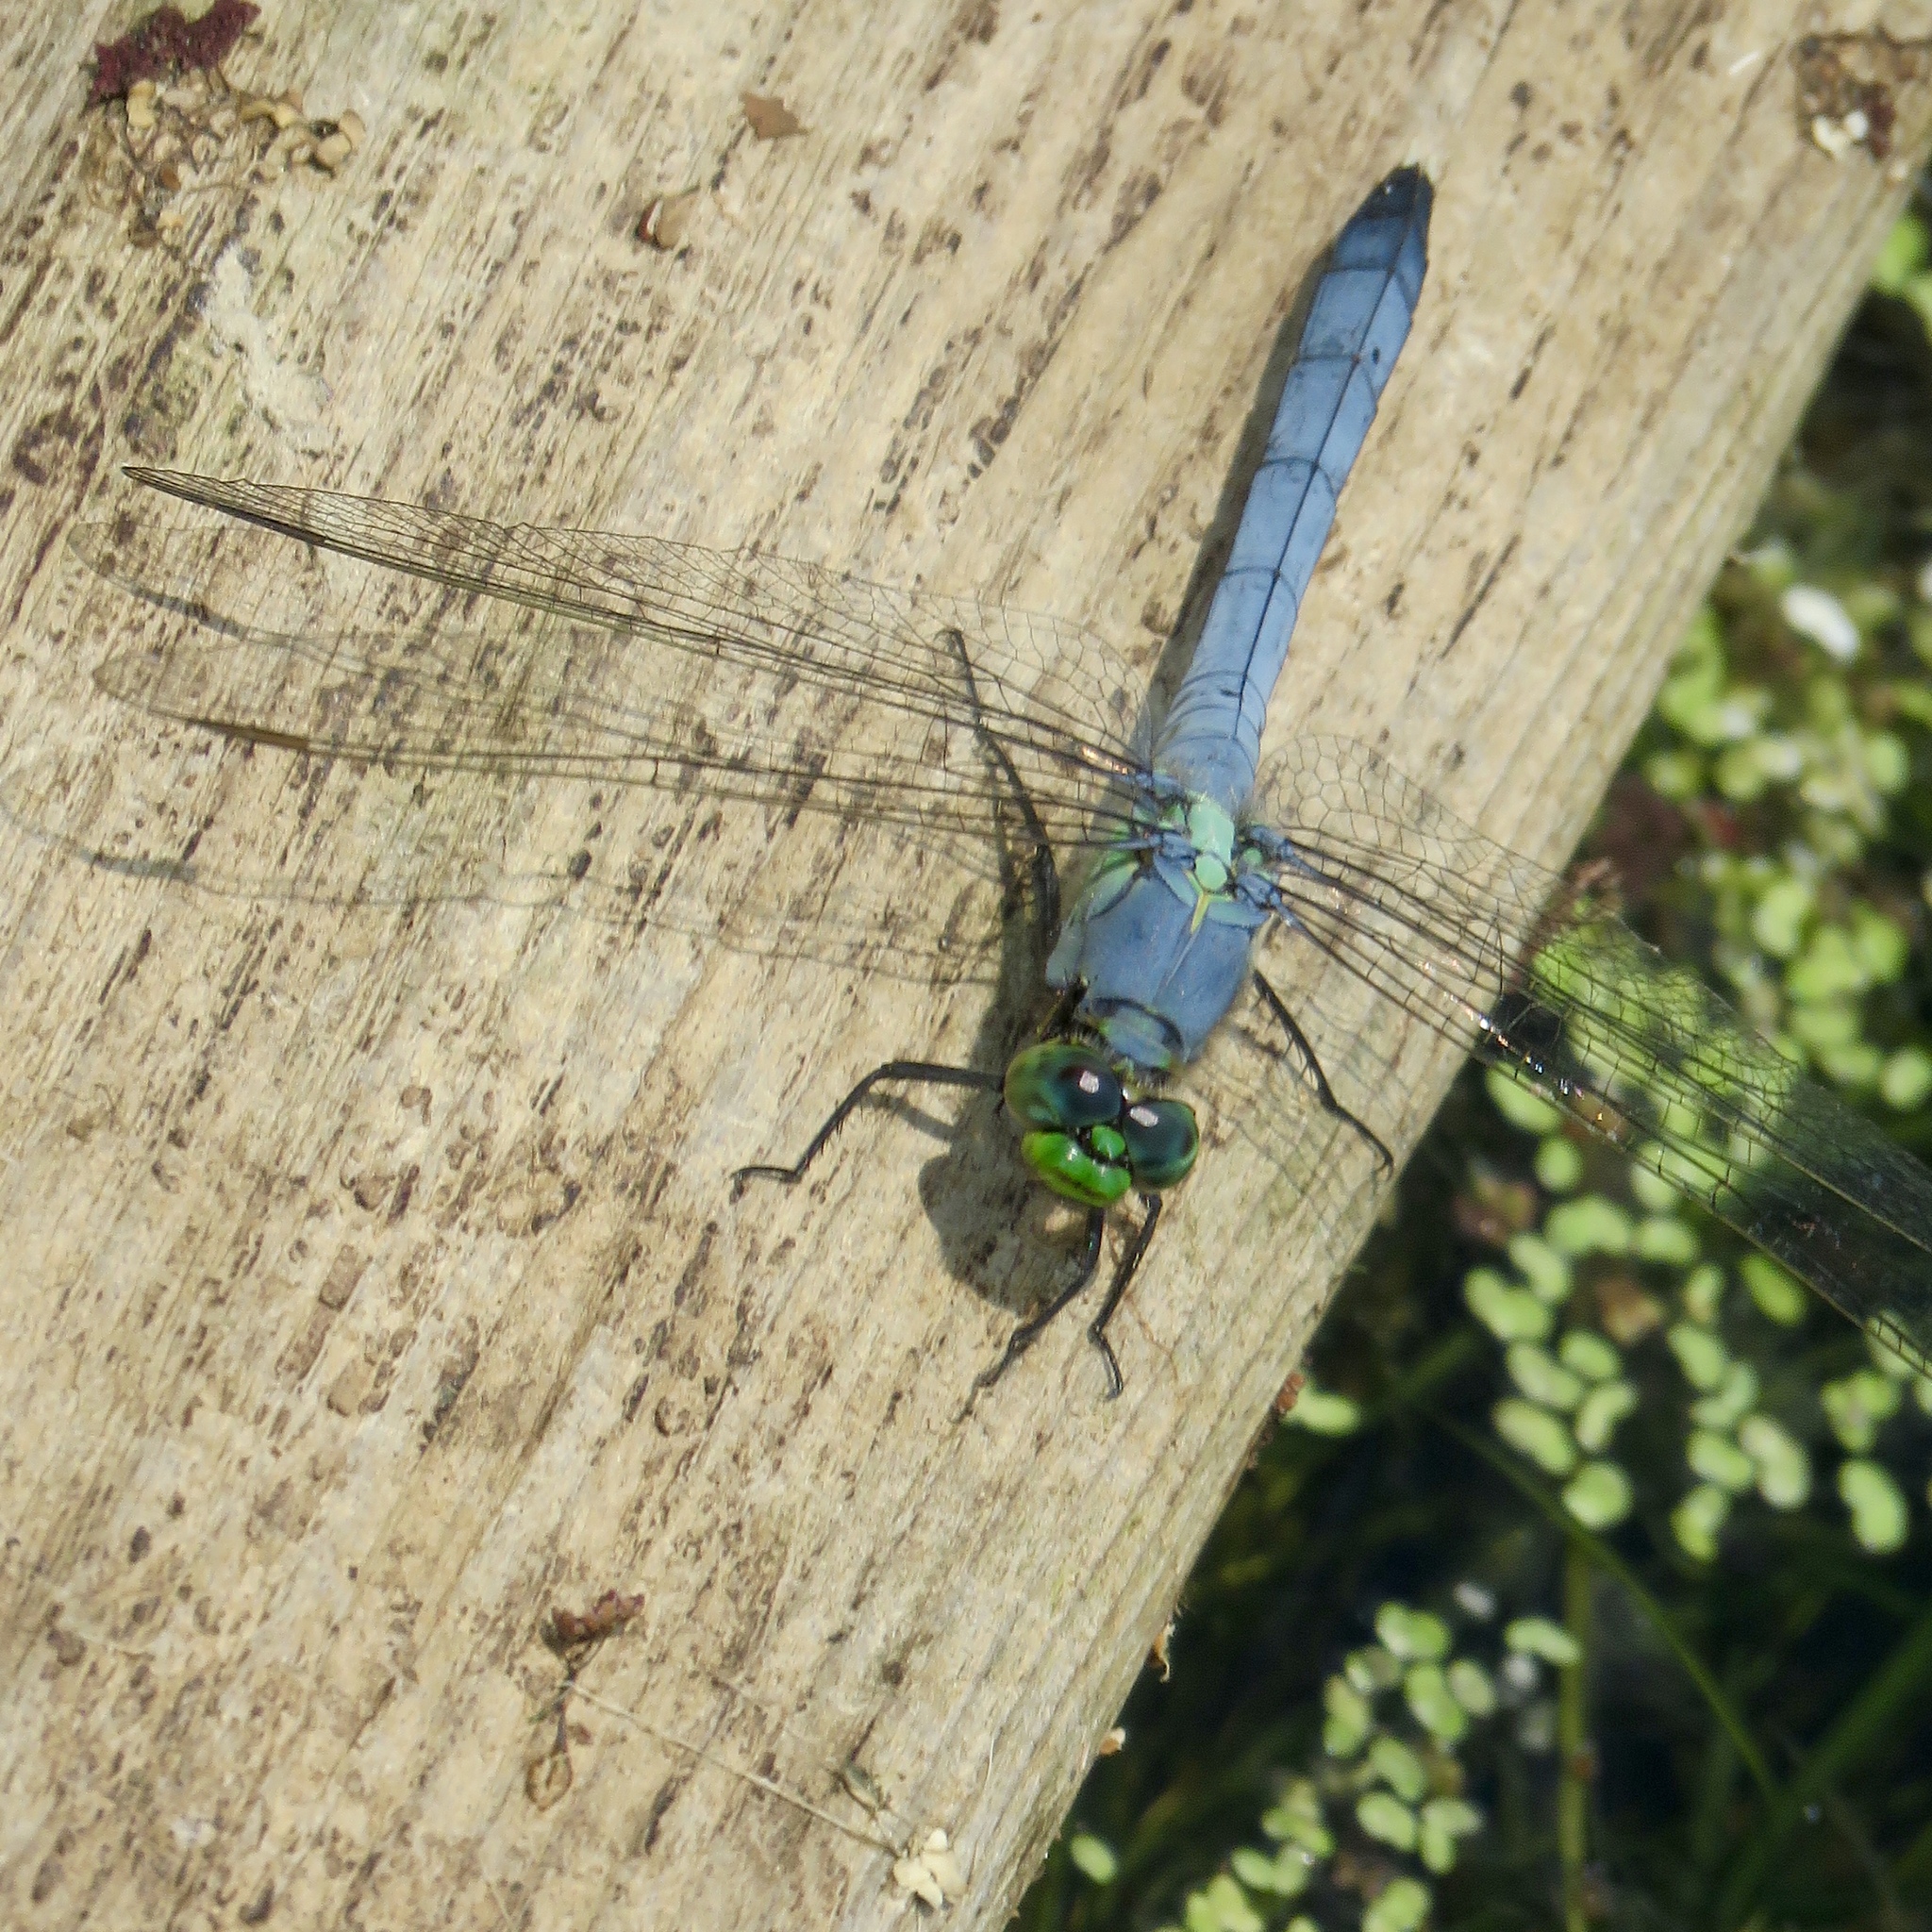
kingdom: Animalia
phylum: Arthropoda
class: Insecta
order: Odonata
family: Libellulidae
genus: Erythemis
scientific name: Erythemis simplicicollis
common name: Eastern pondhawk
